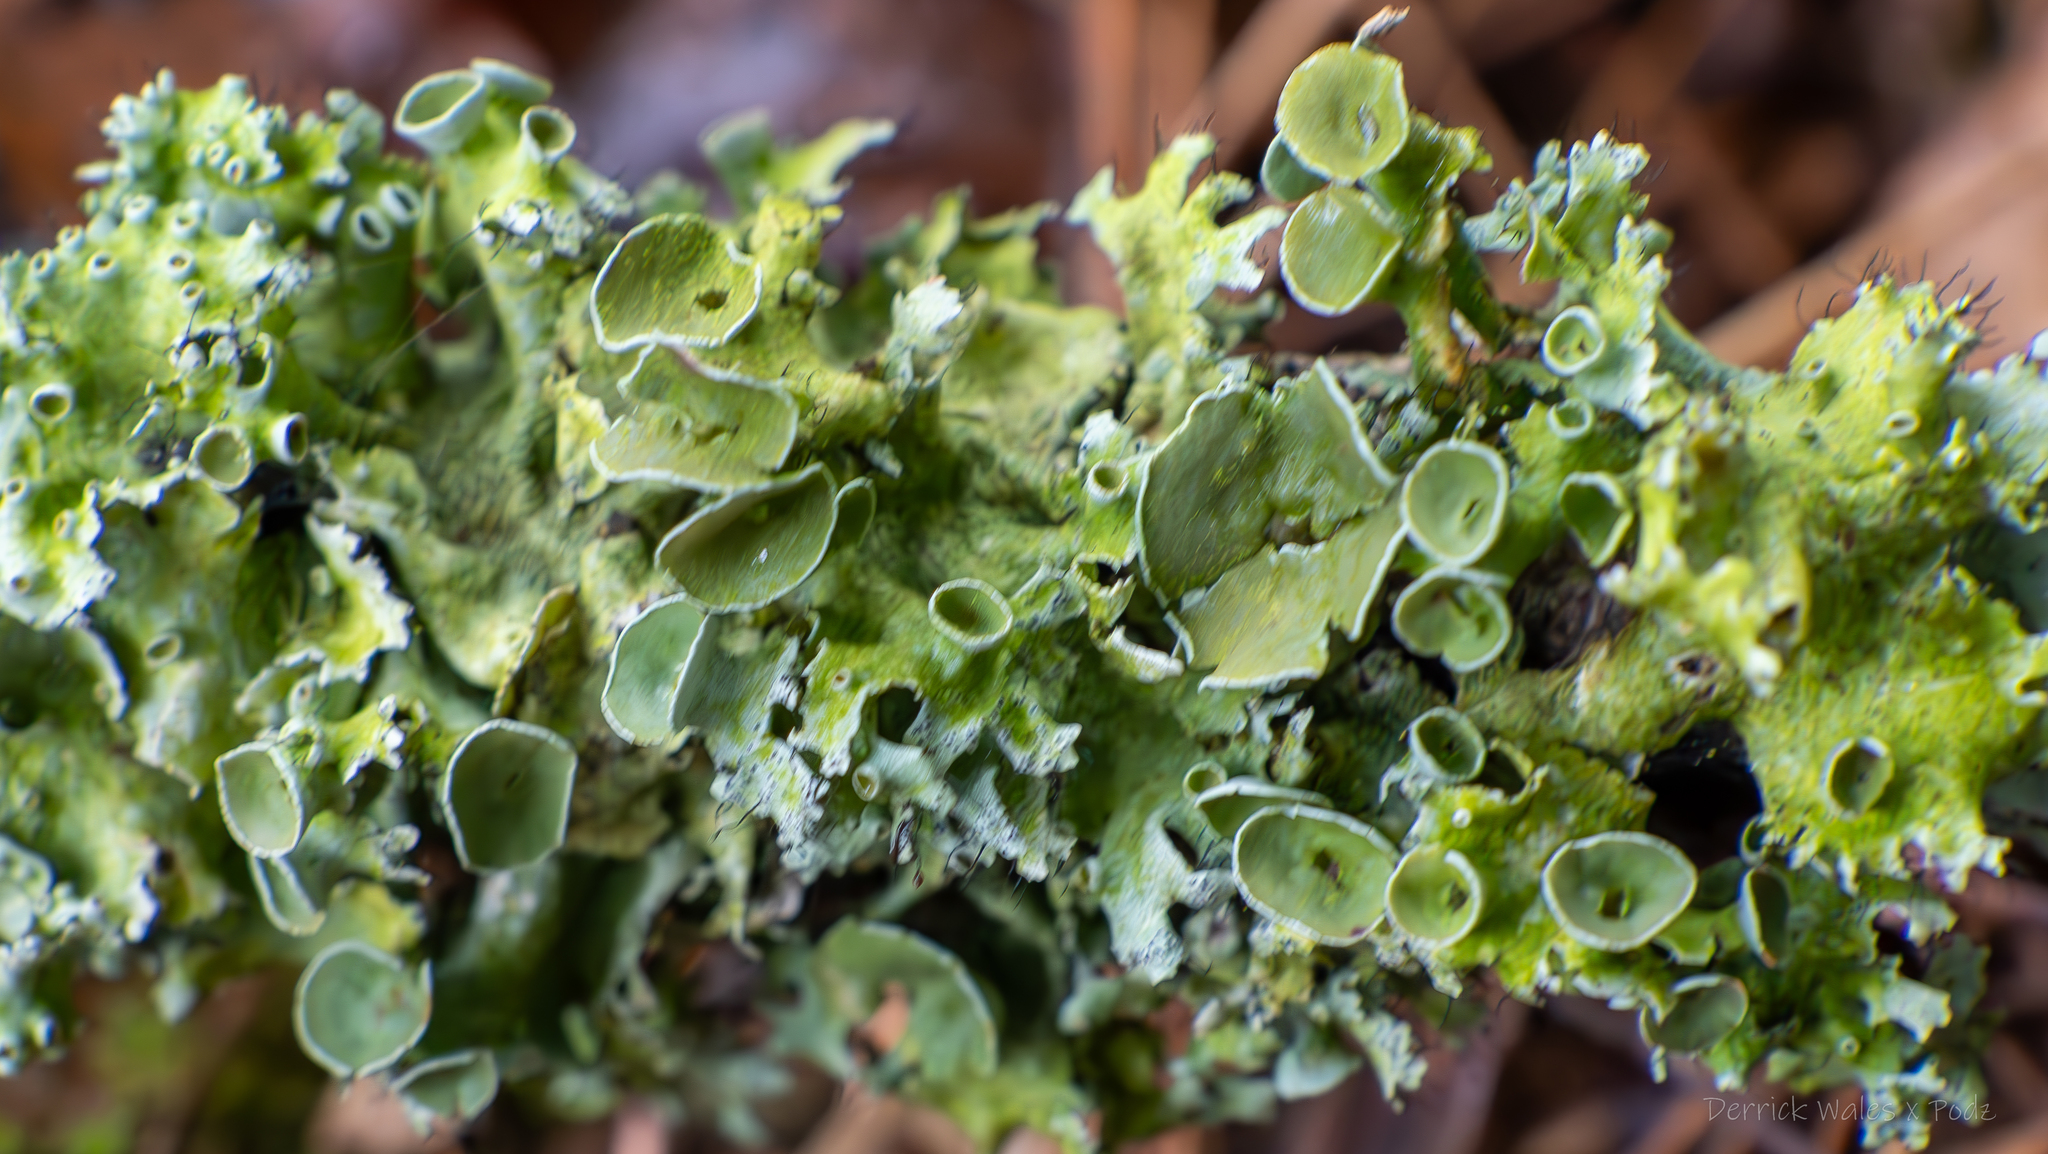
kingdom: Fungi
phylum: Ascomycota
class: Lecanoromycetes
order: Lecanorales
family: Parmeliaceae
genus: Parmotrema
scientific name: Parmotrema perforatum
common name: Perforated ruffle lichen
